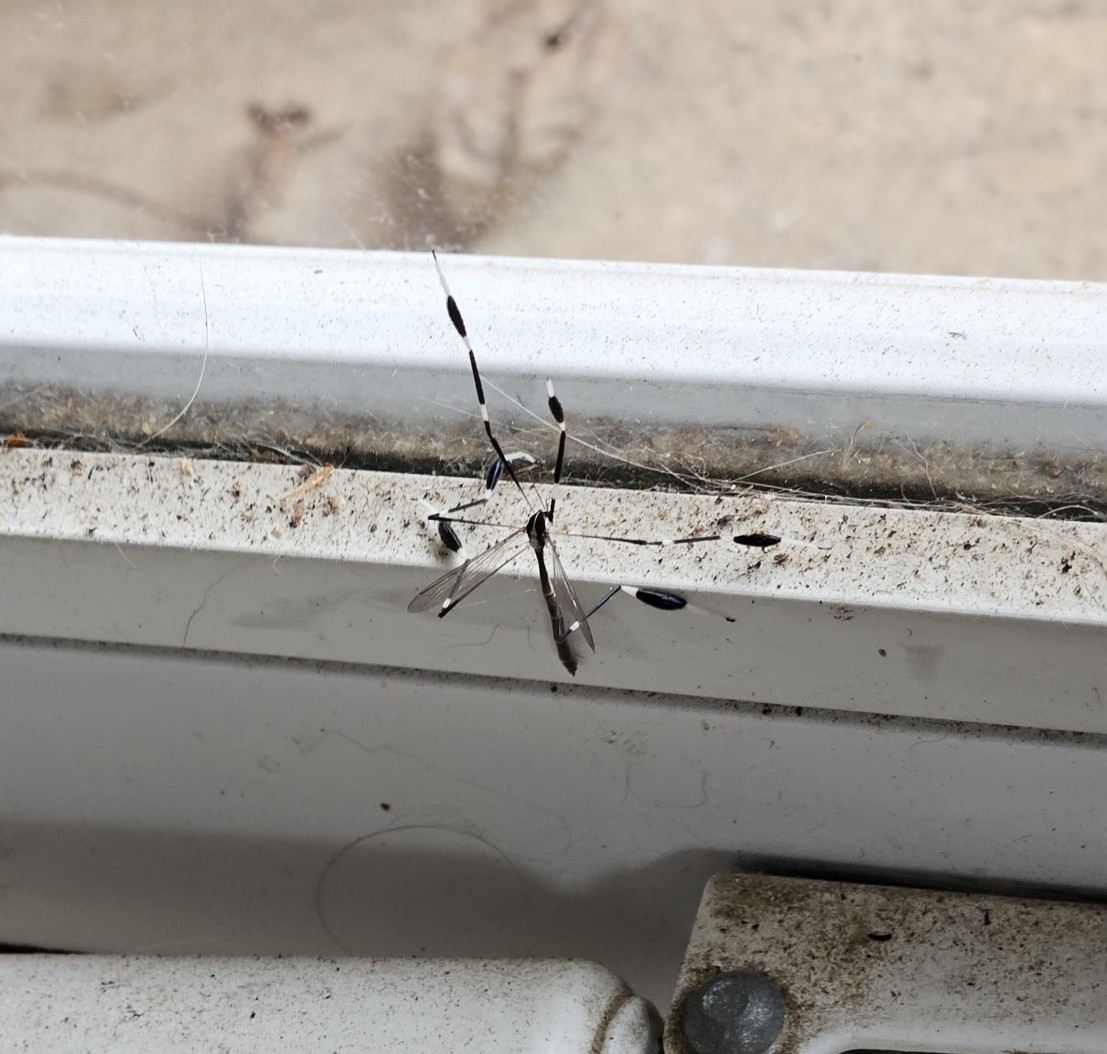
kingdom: Animalia
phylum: Arthropoda
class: Insecta
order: Diptera
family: Ptychopteridae
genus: Bittacomorpha
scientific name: Bittacomorpha clavipes
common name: Eastern phantom crane fly
